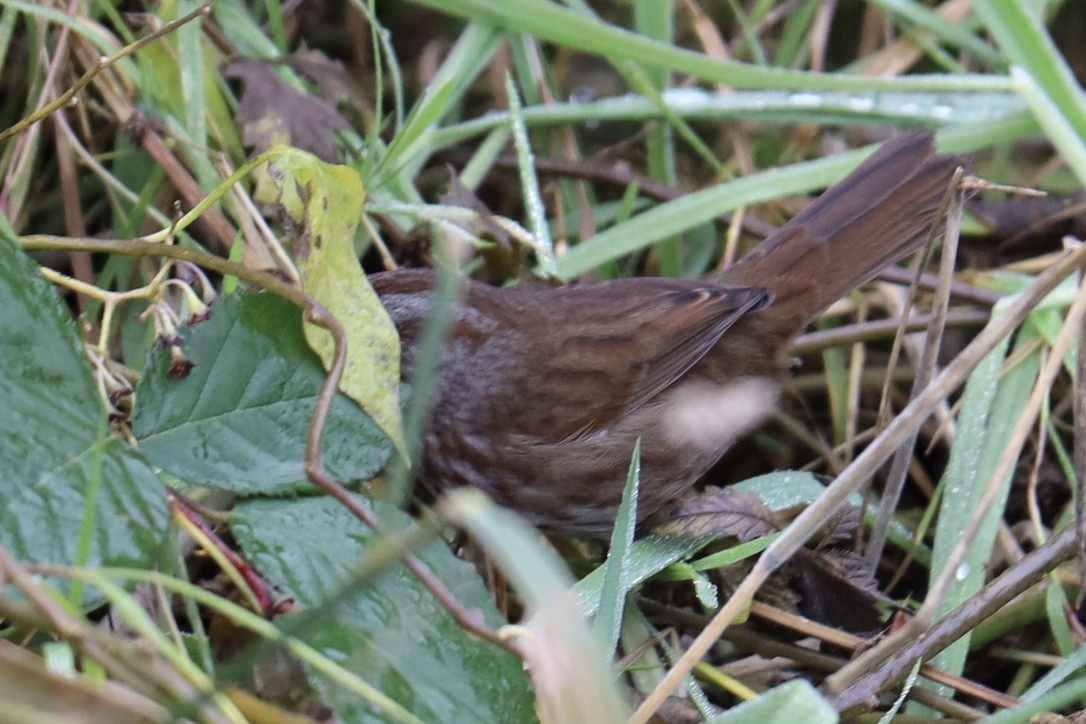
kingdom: Animalia
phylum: Chordata
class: Aves
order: Passeriformes
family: Passerellidae
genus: Melospiza
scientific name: Melospiza melodia
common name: Song sparrow
